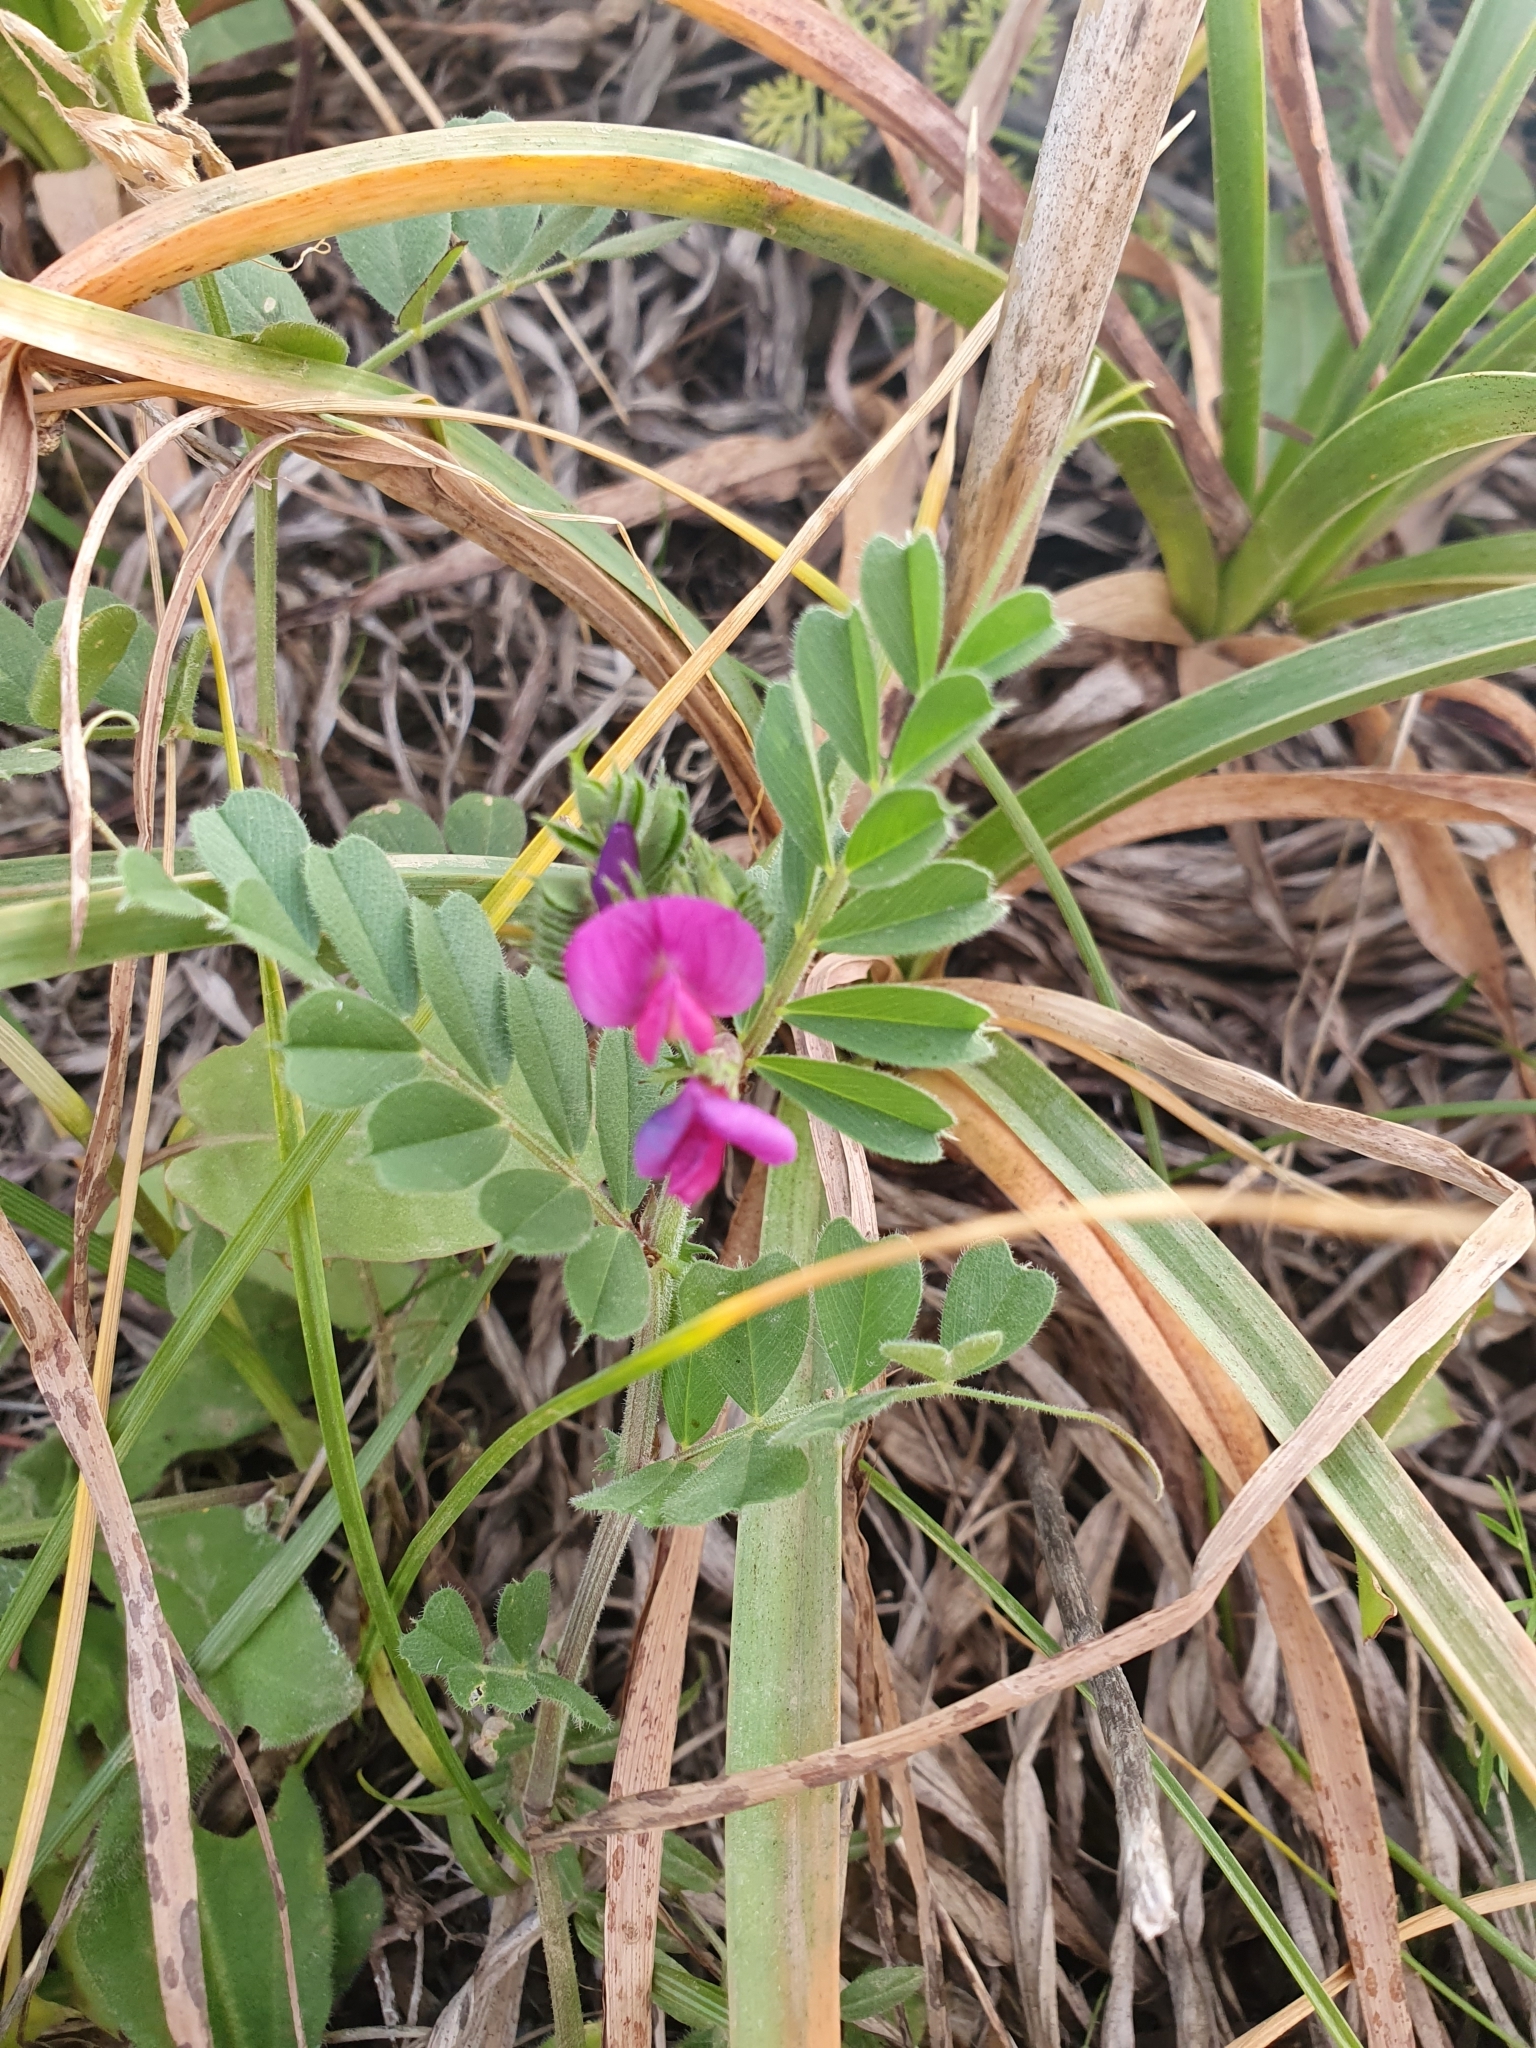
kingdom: Plantae
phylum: Tracheophyta
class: Magnoliopsida
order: Fabales
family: Fabaceae
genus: Vicia
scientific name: Vicia sativa
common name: Garden vetch
